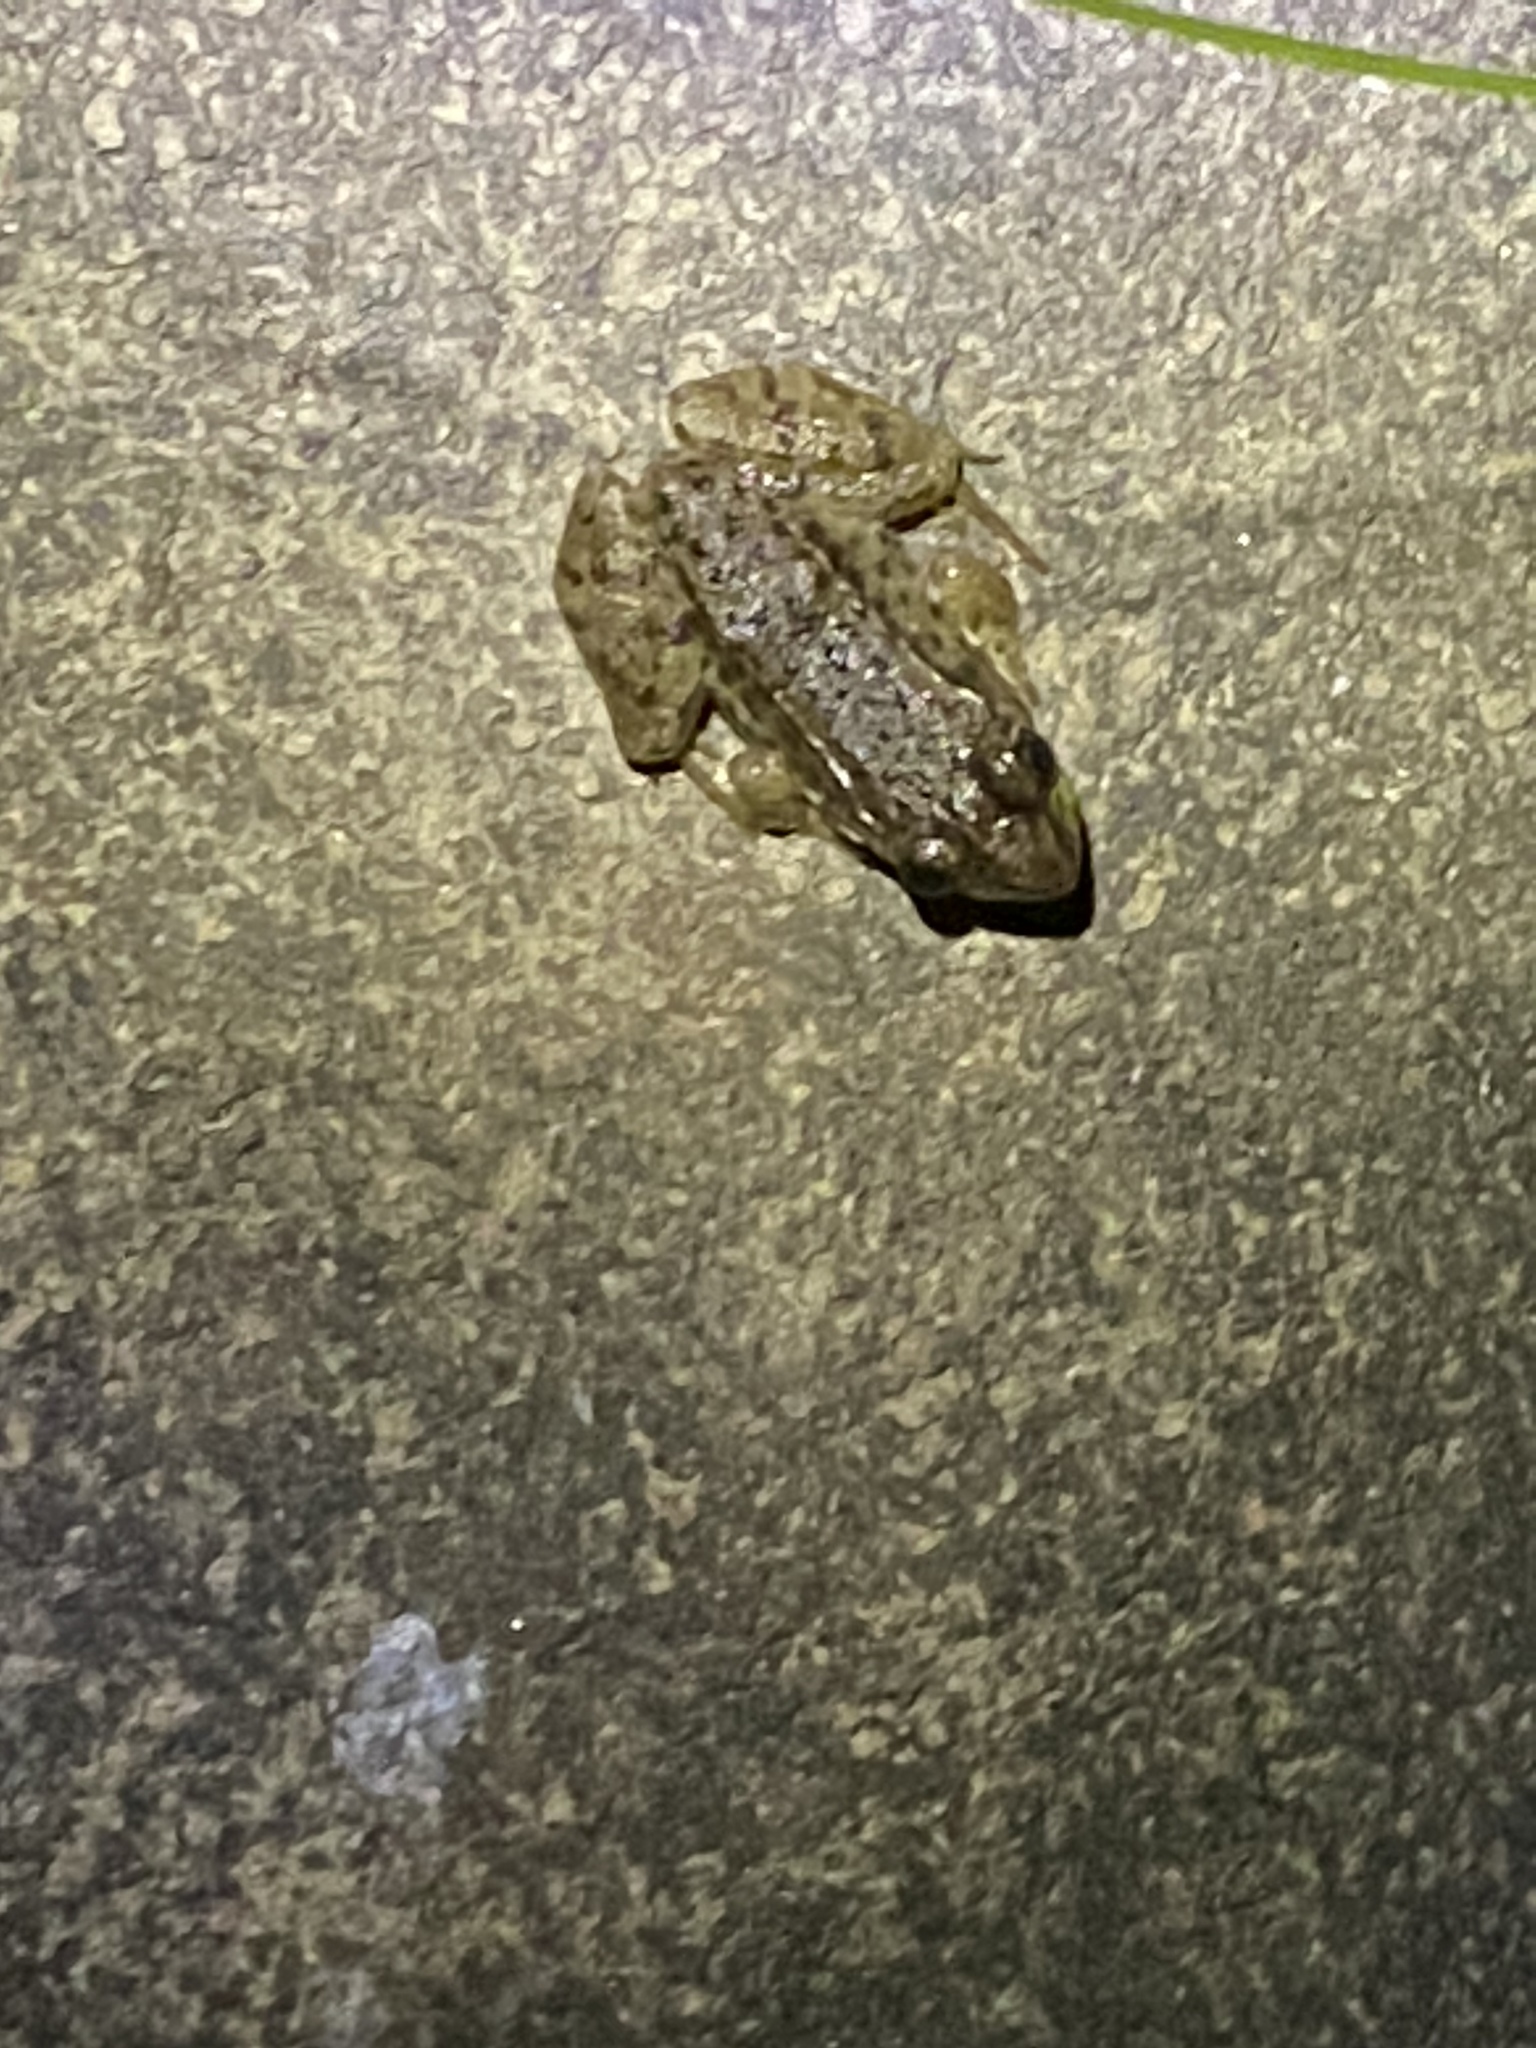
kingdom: Animalia
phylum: Chordata
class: Amphibia
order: Anura
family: Ranidae
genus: Lithobates
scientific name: Lithobates clamitans
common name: Green frog
